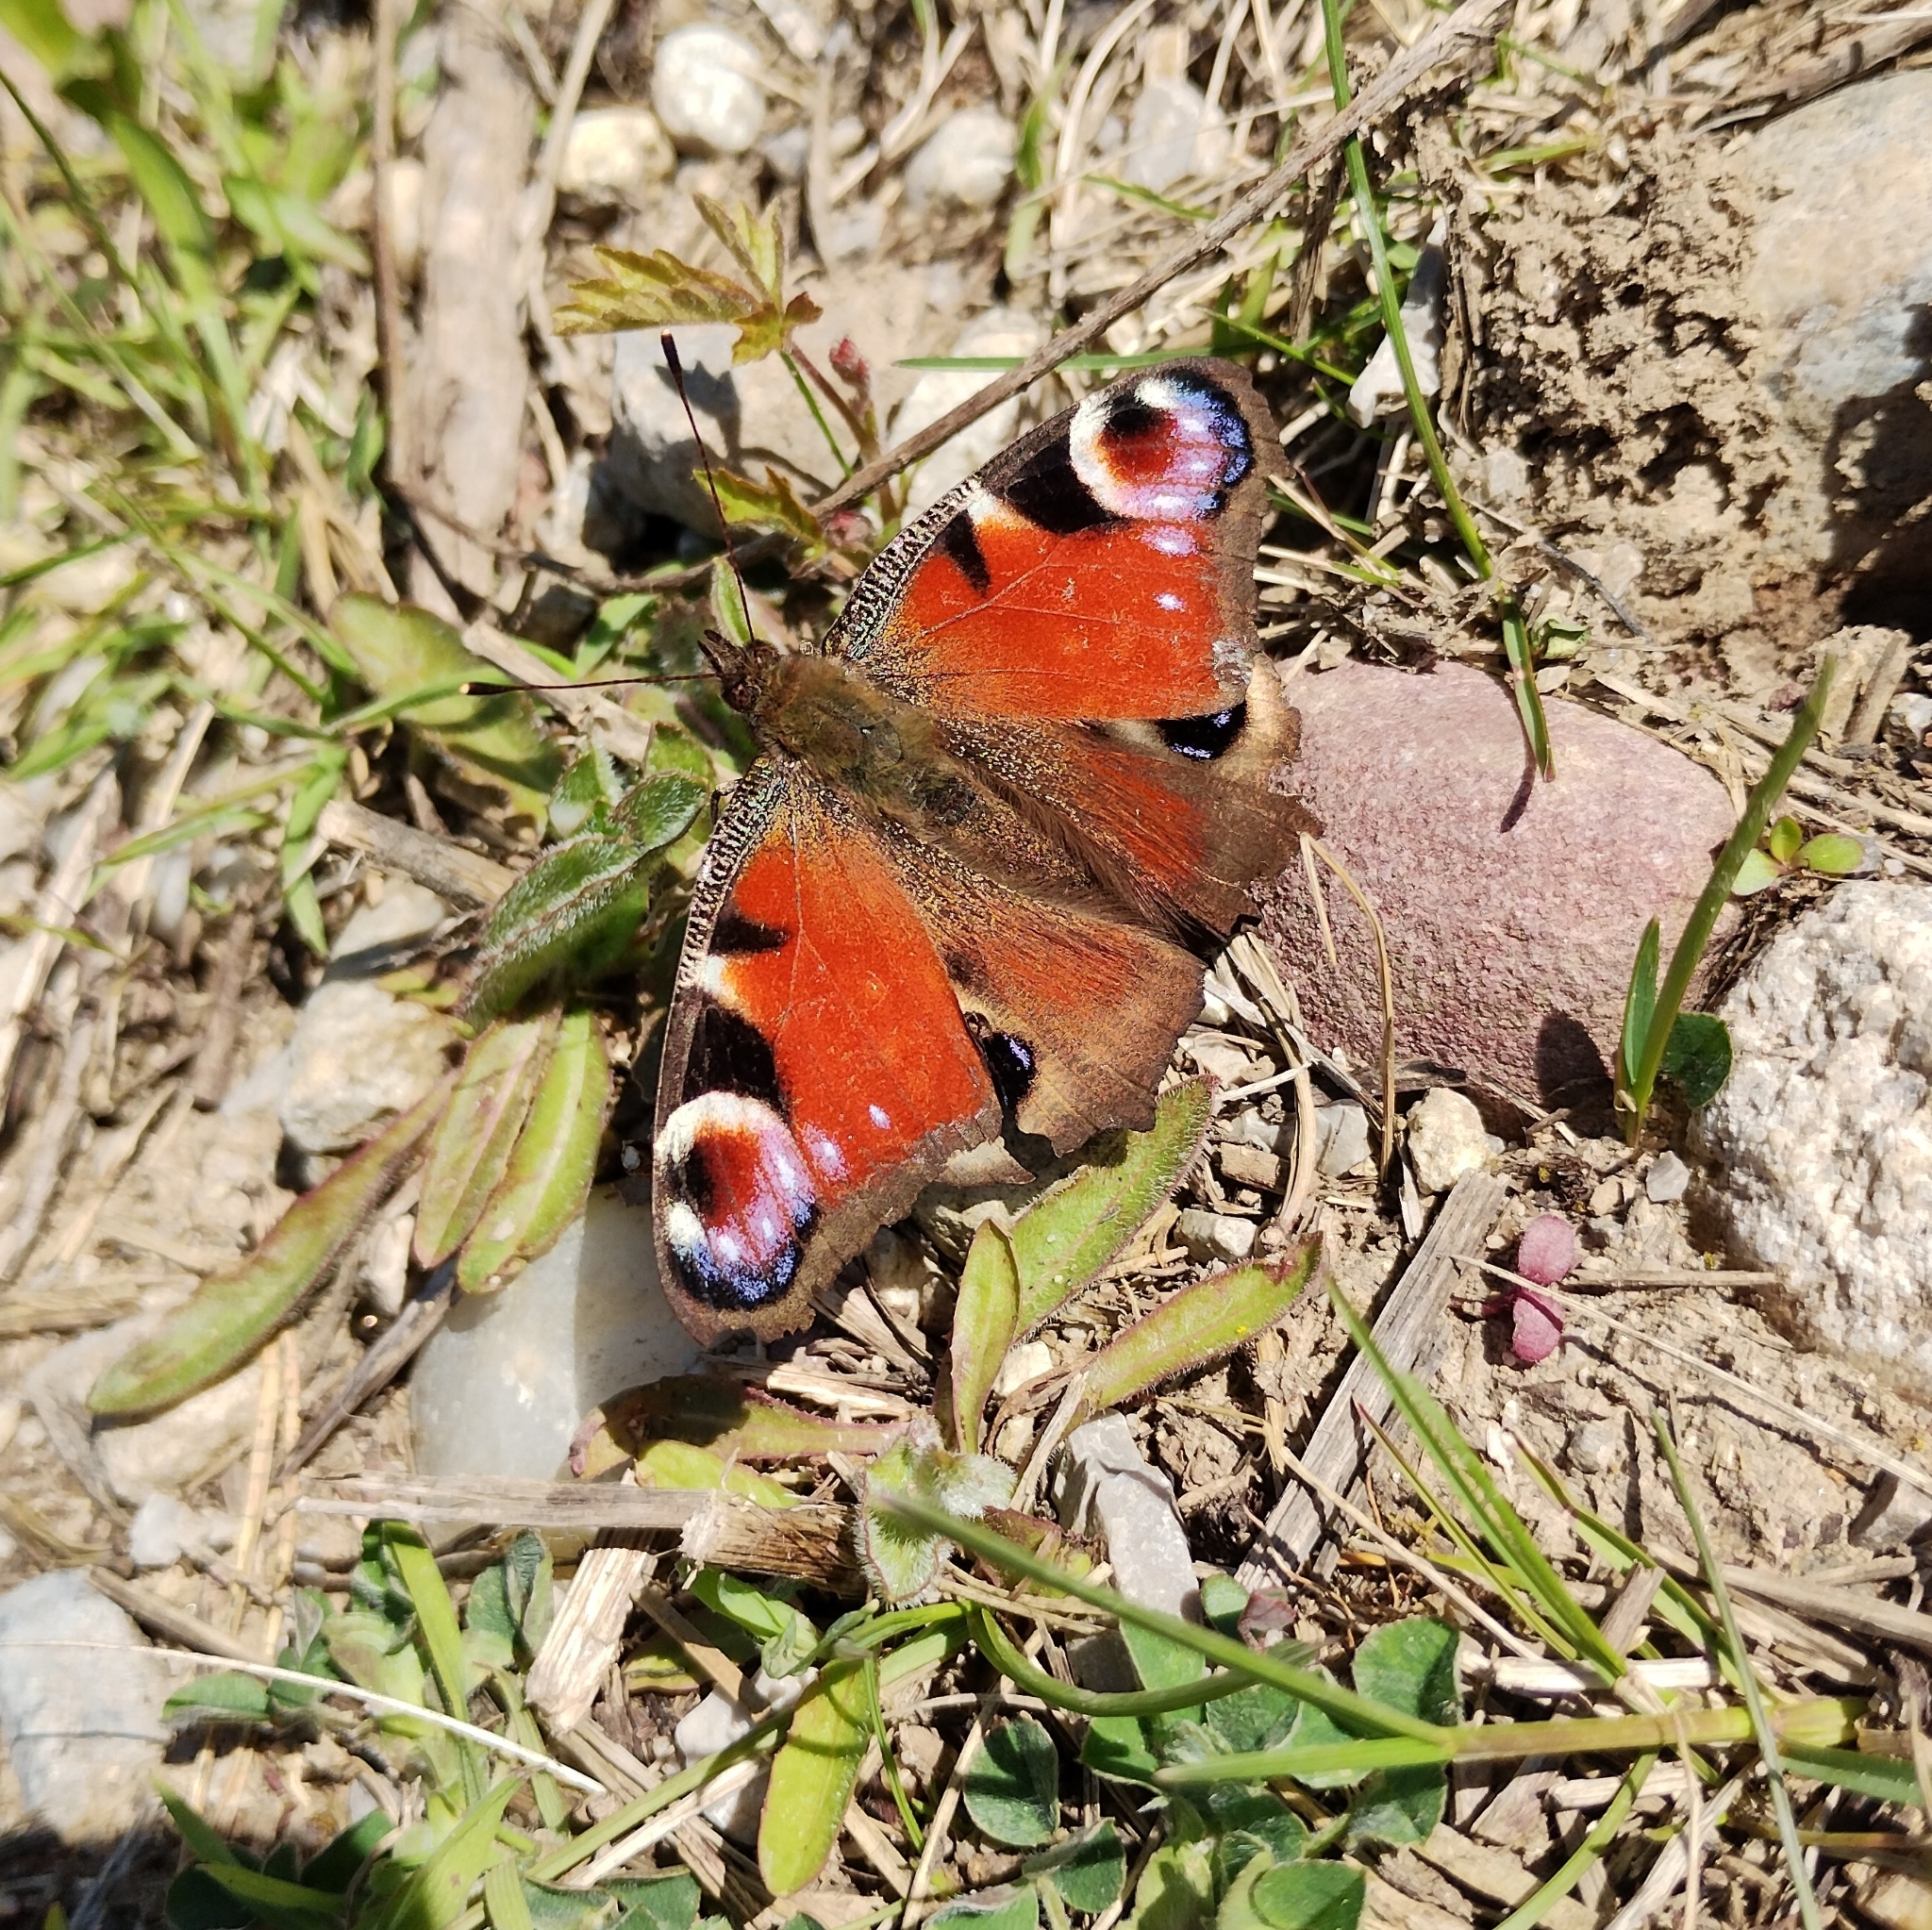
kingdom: Animalia
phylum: Arthropoda
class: Insecta
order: Lepidoptera
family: Nymphalidae
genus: Aglais
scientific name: Aglais io
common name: Peacock
